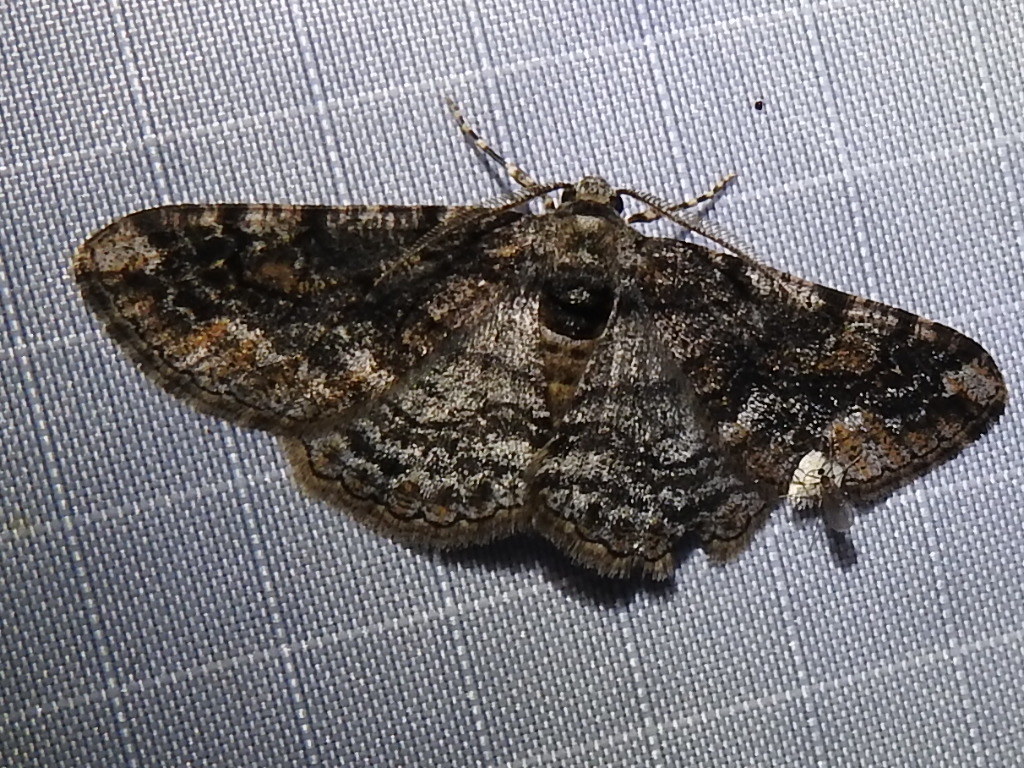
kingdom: Animalia
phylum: Arthropoda
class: Insecta
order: Lepidoptera
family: Geometridae
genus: Parapheromia
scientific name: Parapheromia cassinoi
